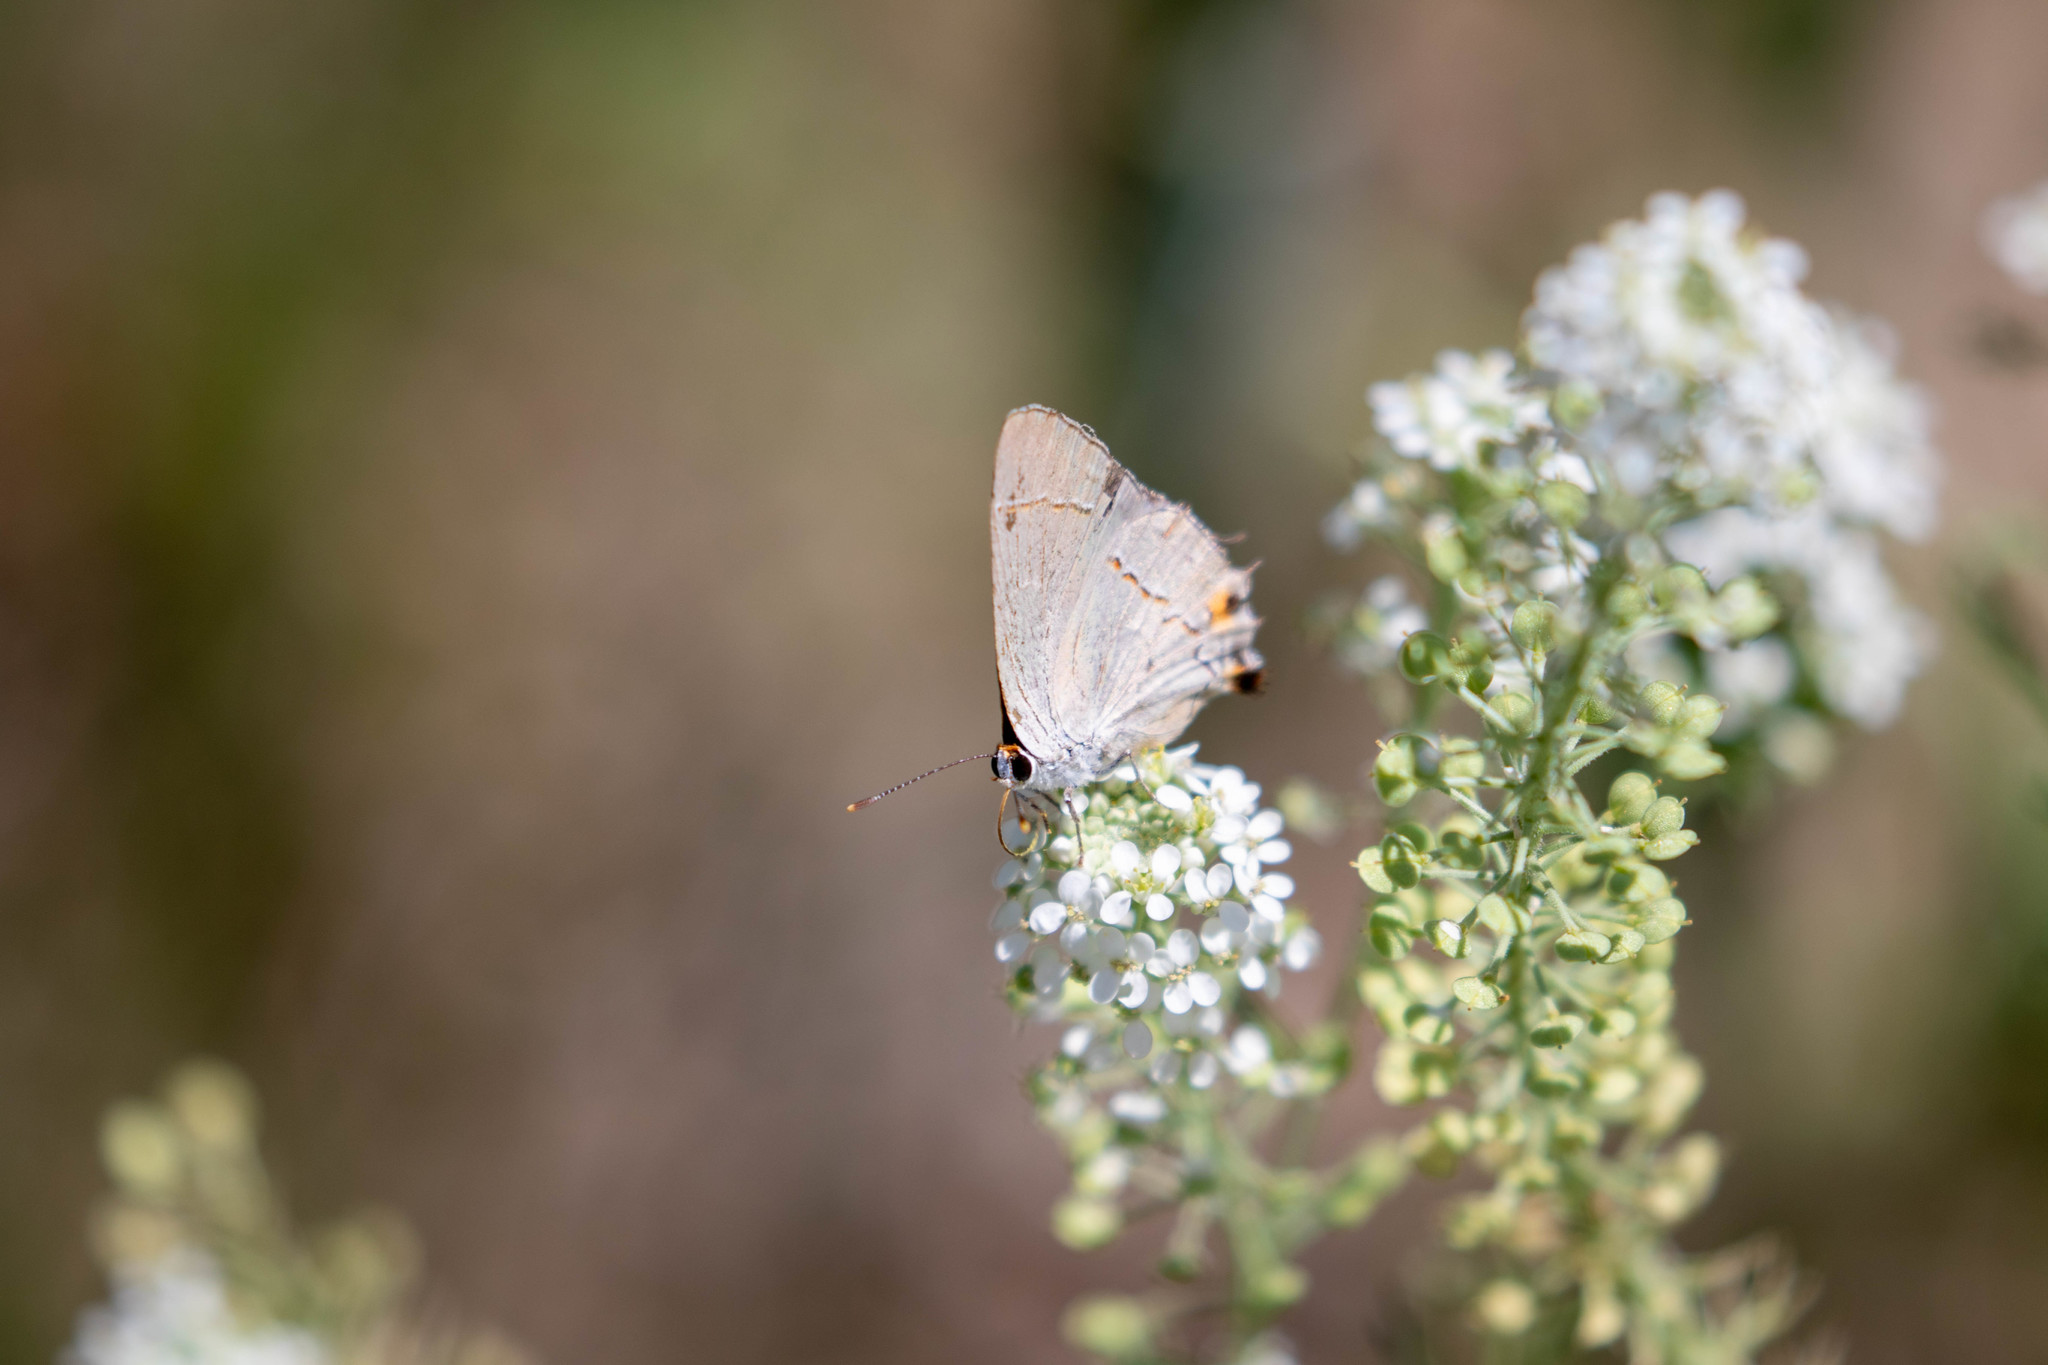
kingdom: Animalia
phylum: Arthropoda
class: Insecta
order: Lepidoptera
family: Lycaenidae
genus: Strymon
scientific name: Strymon melinus
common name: Gray hairstreak
